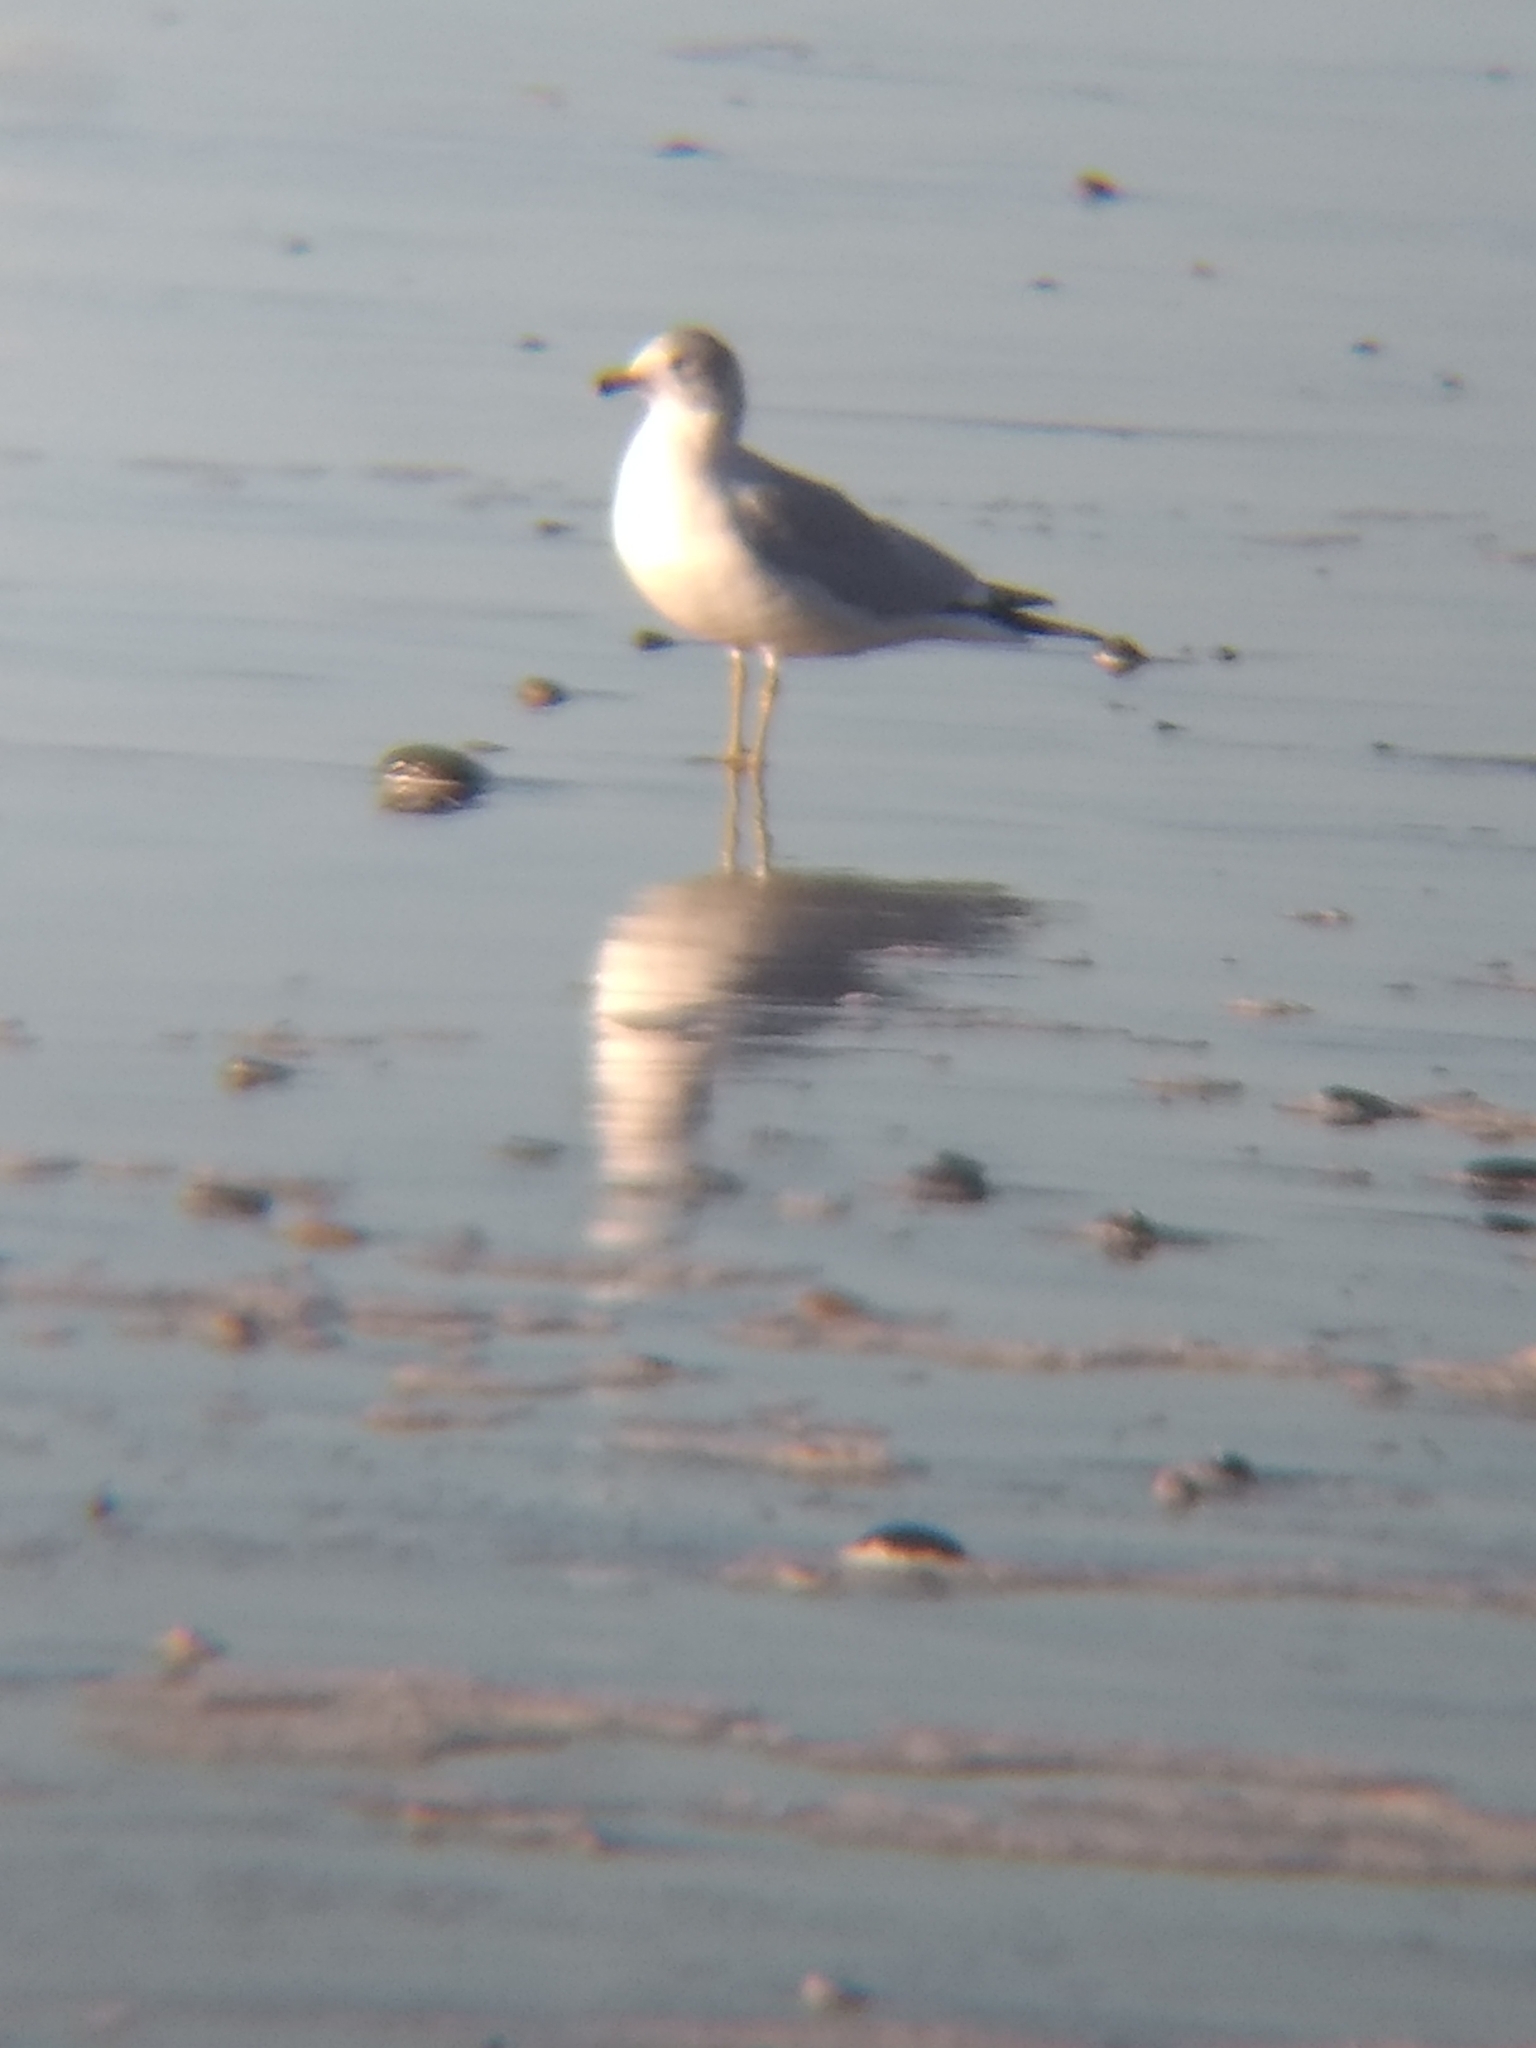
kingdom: Animalia
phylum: Chordata
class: Aves
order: Charadriiformes
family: Laridae
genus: Larus
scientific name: Larus delawarensis
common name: Ring-billed gull
